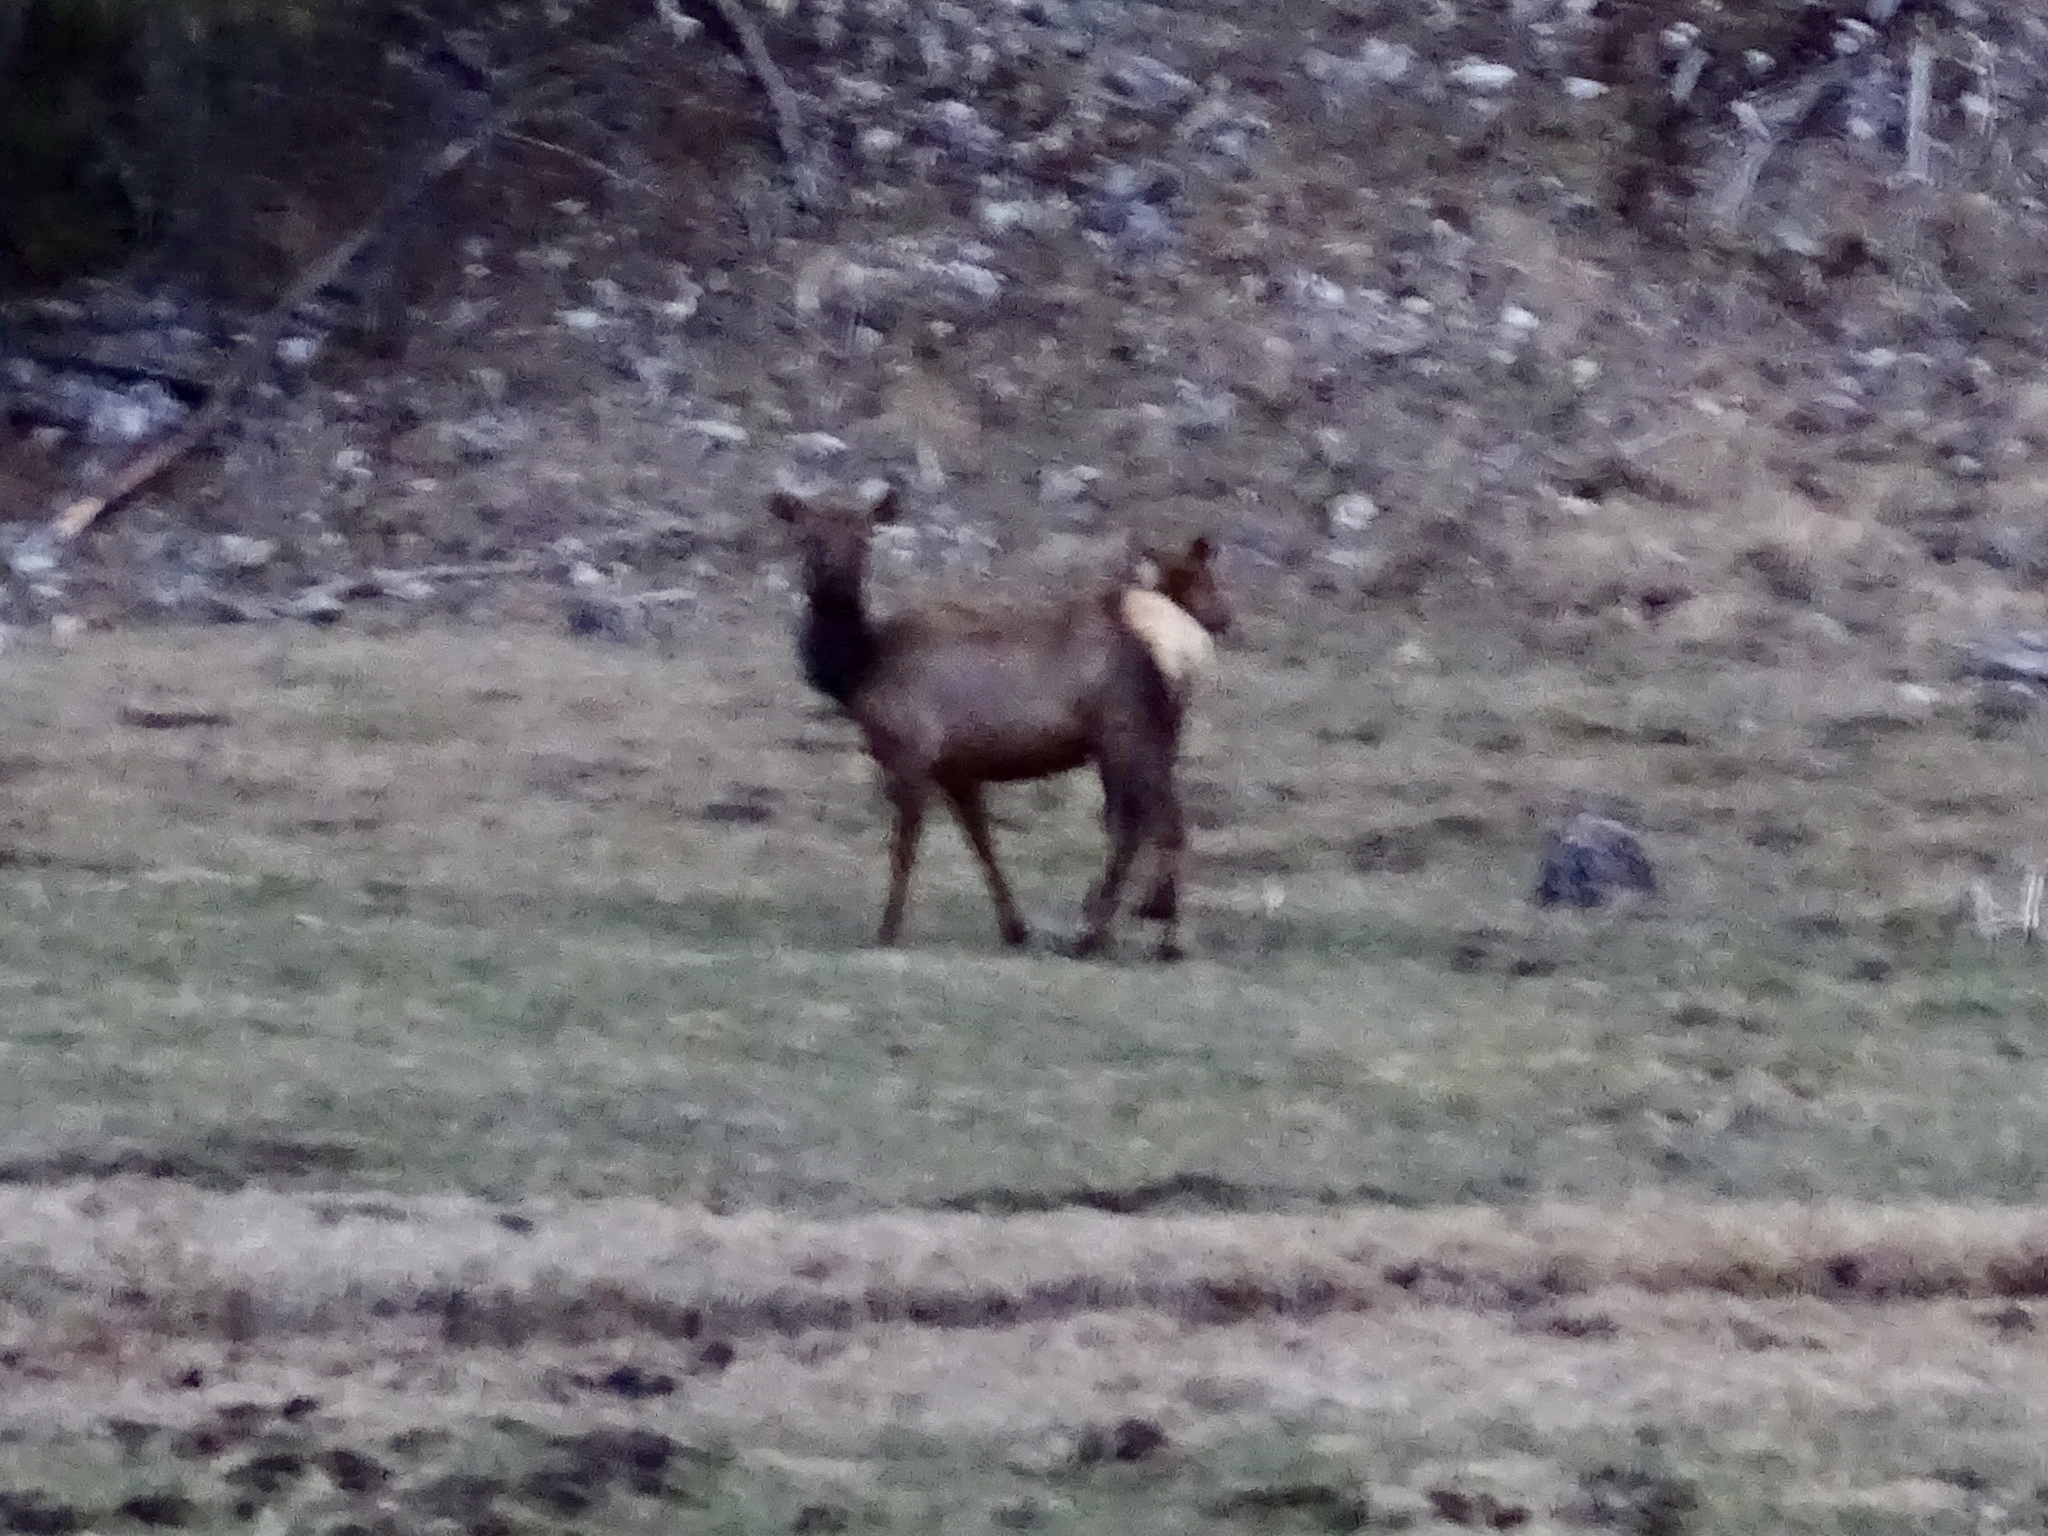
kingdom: Animalia
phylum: Chordata
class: Mammalia
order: Artiodactyla
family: Cervidae
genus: Cervus
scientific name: Cervus elaphus
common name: Red deer
